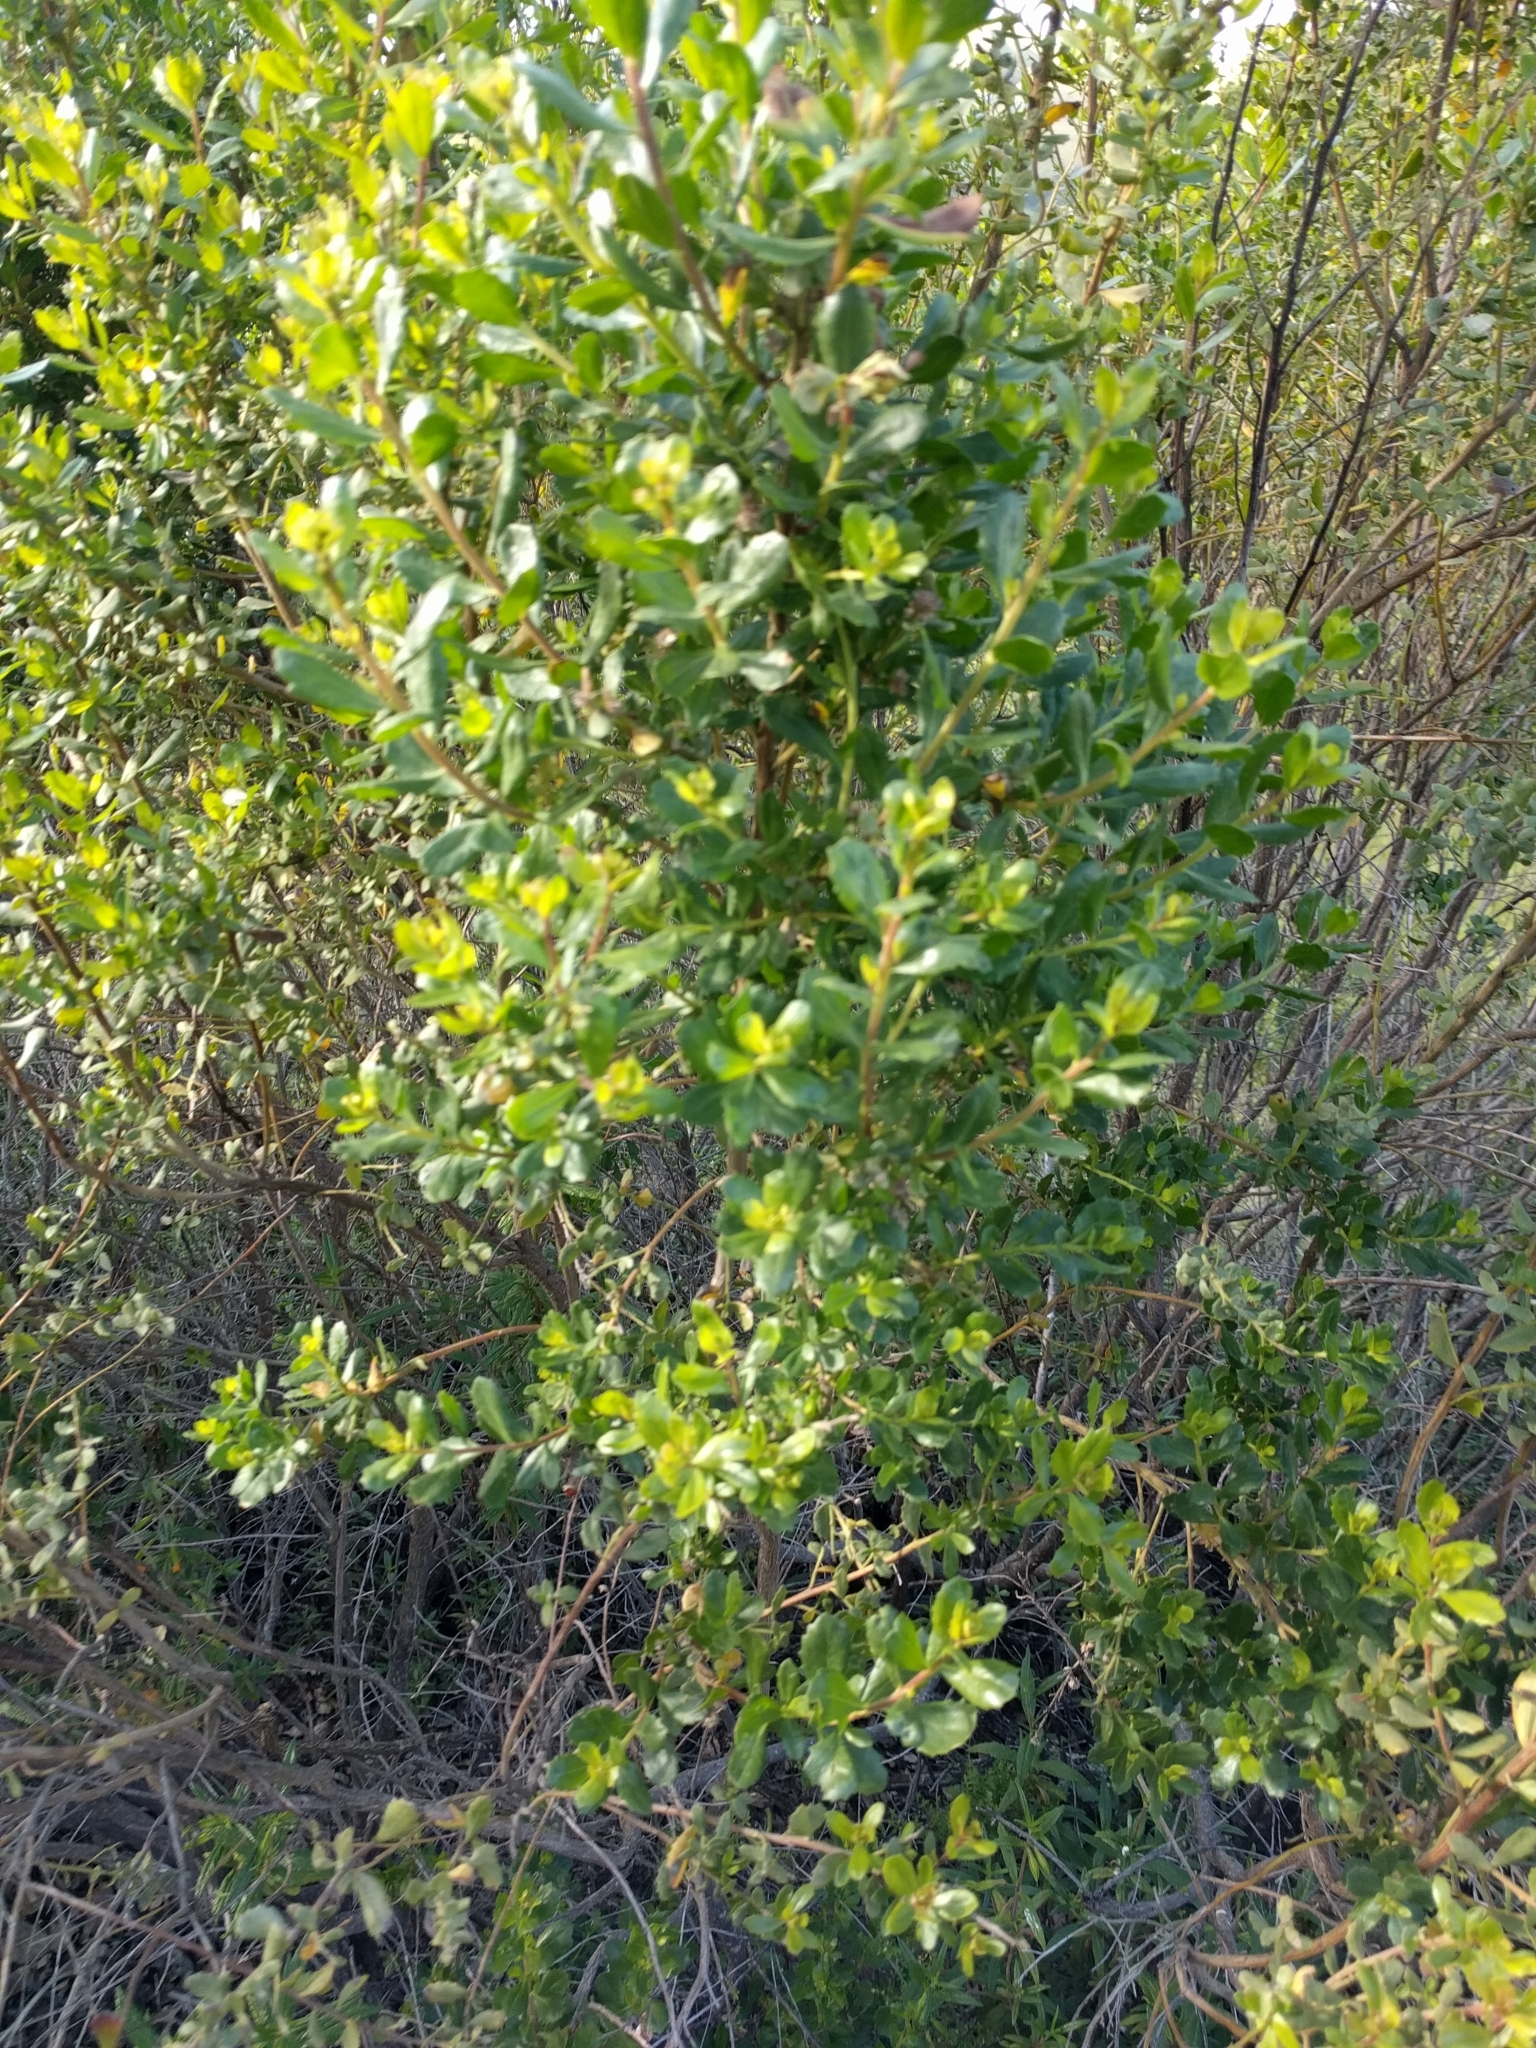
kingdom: Plantae
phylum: Tracheophyta
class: Magnoliopsida
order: Asterales
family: Asteraceae
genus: Baccharis
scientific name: Baccharis pilularis
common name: Coyotebrush
